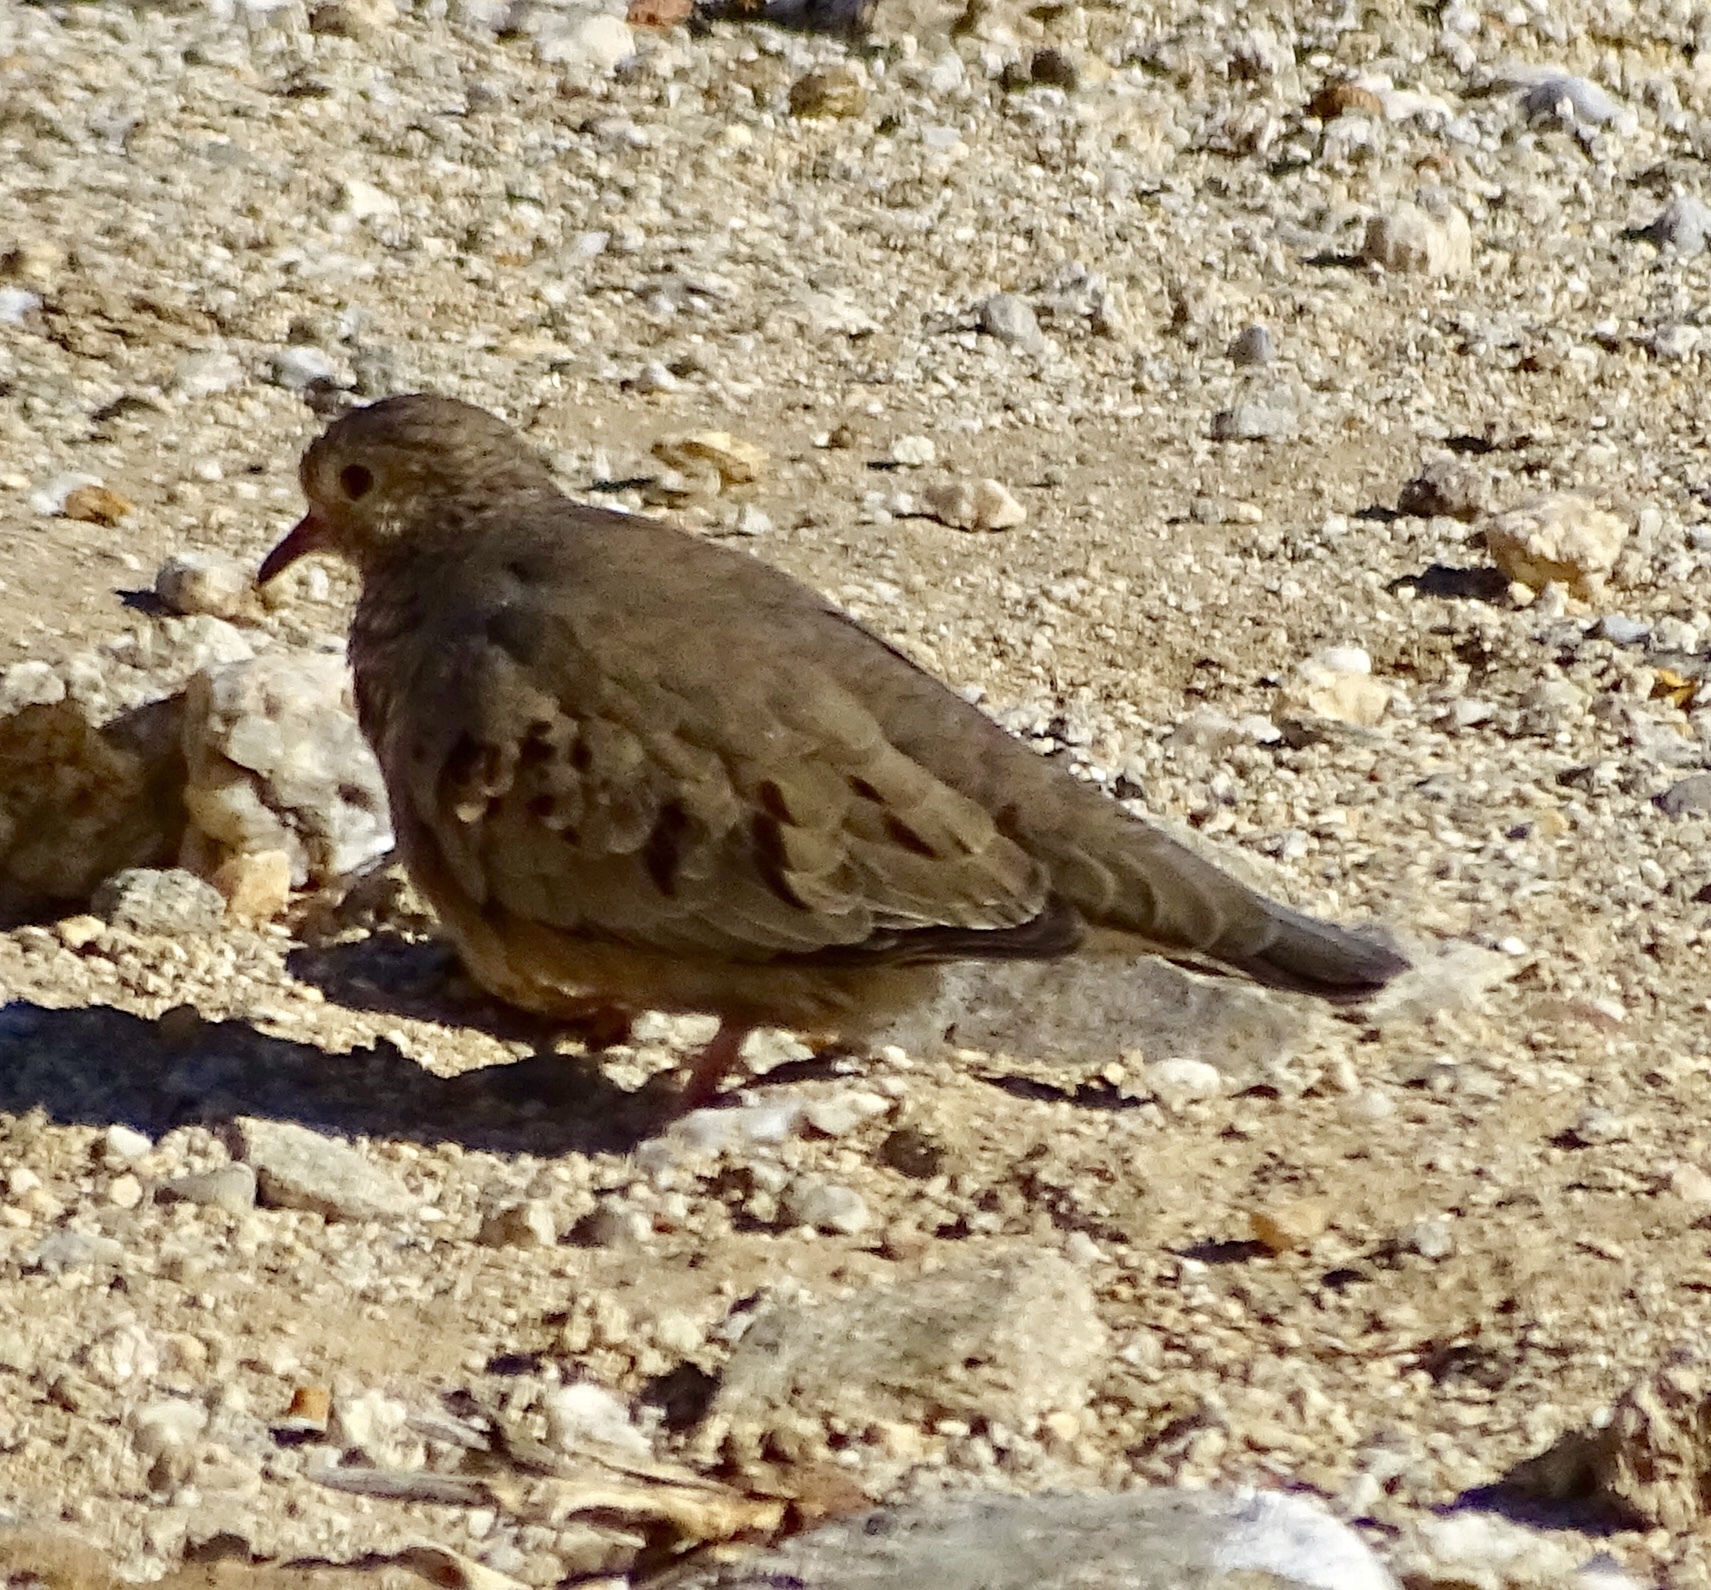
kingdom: Animalia
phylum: Chordata
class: Aves
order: Columbiformes
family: Columbidae
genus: Columbina
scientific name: Columbina passerina
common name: Common ground-dove
